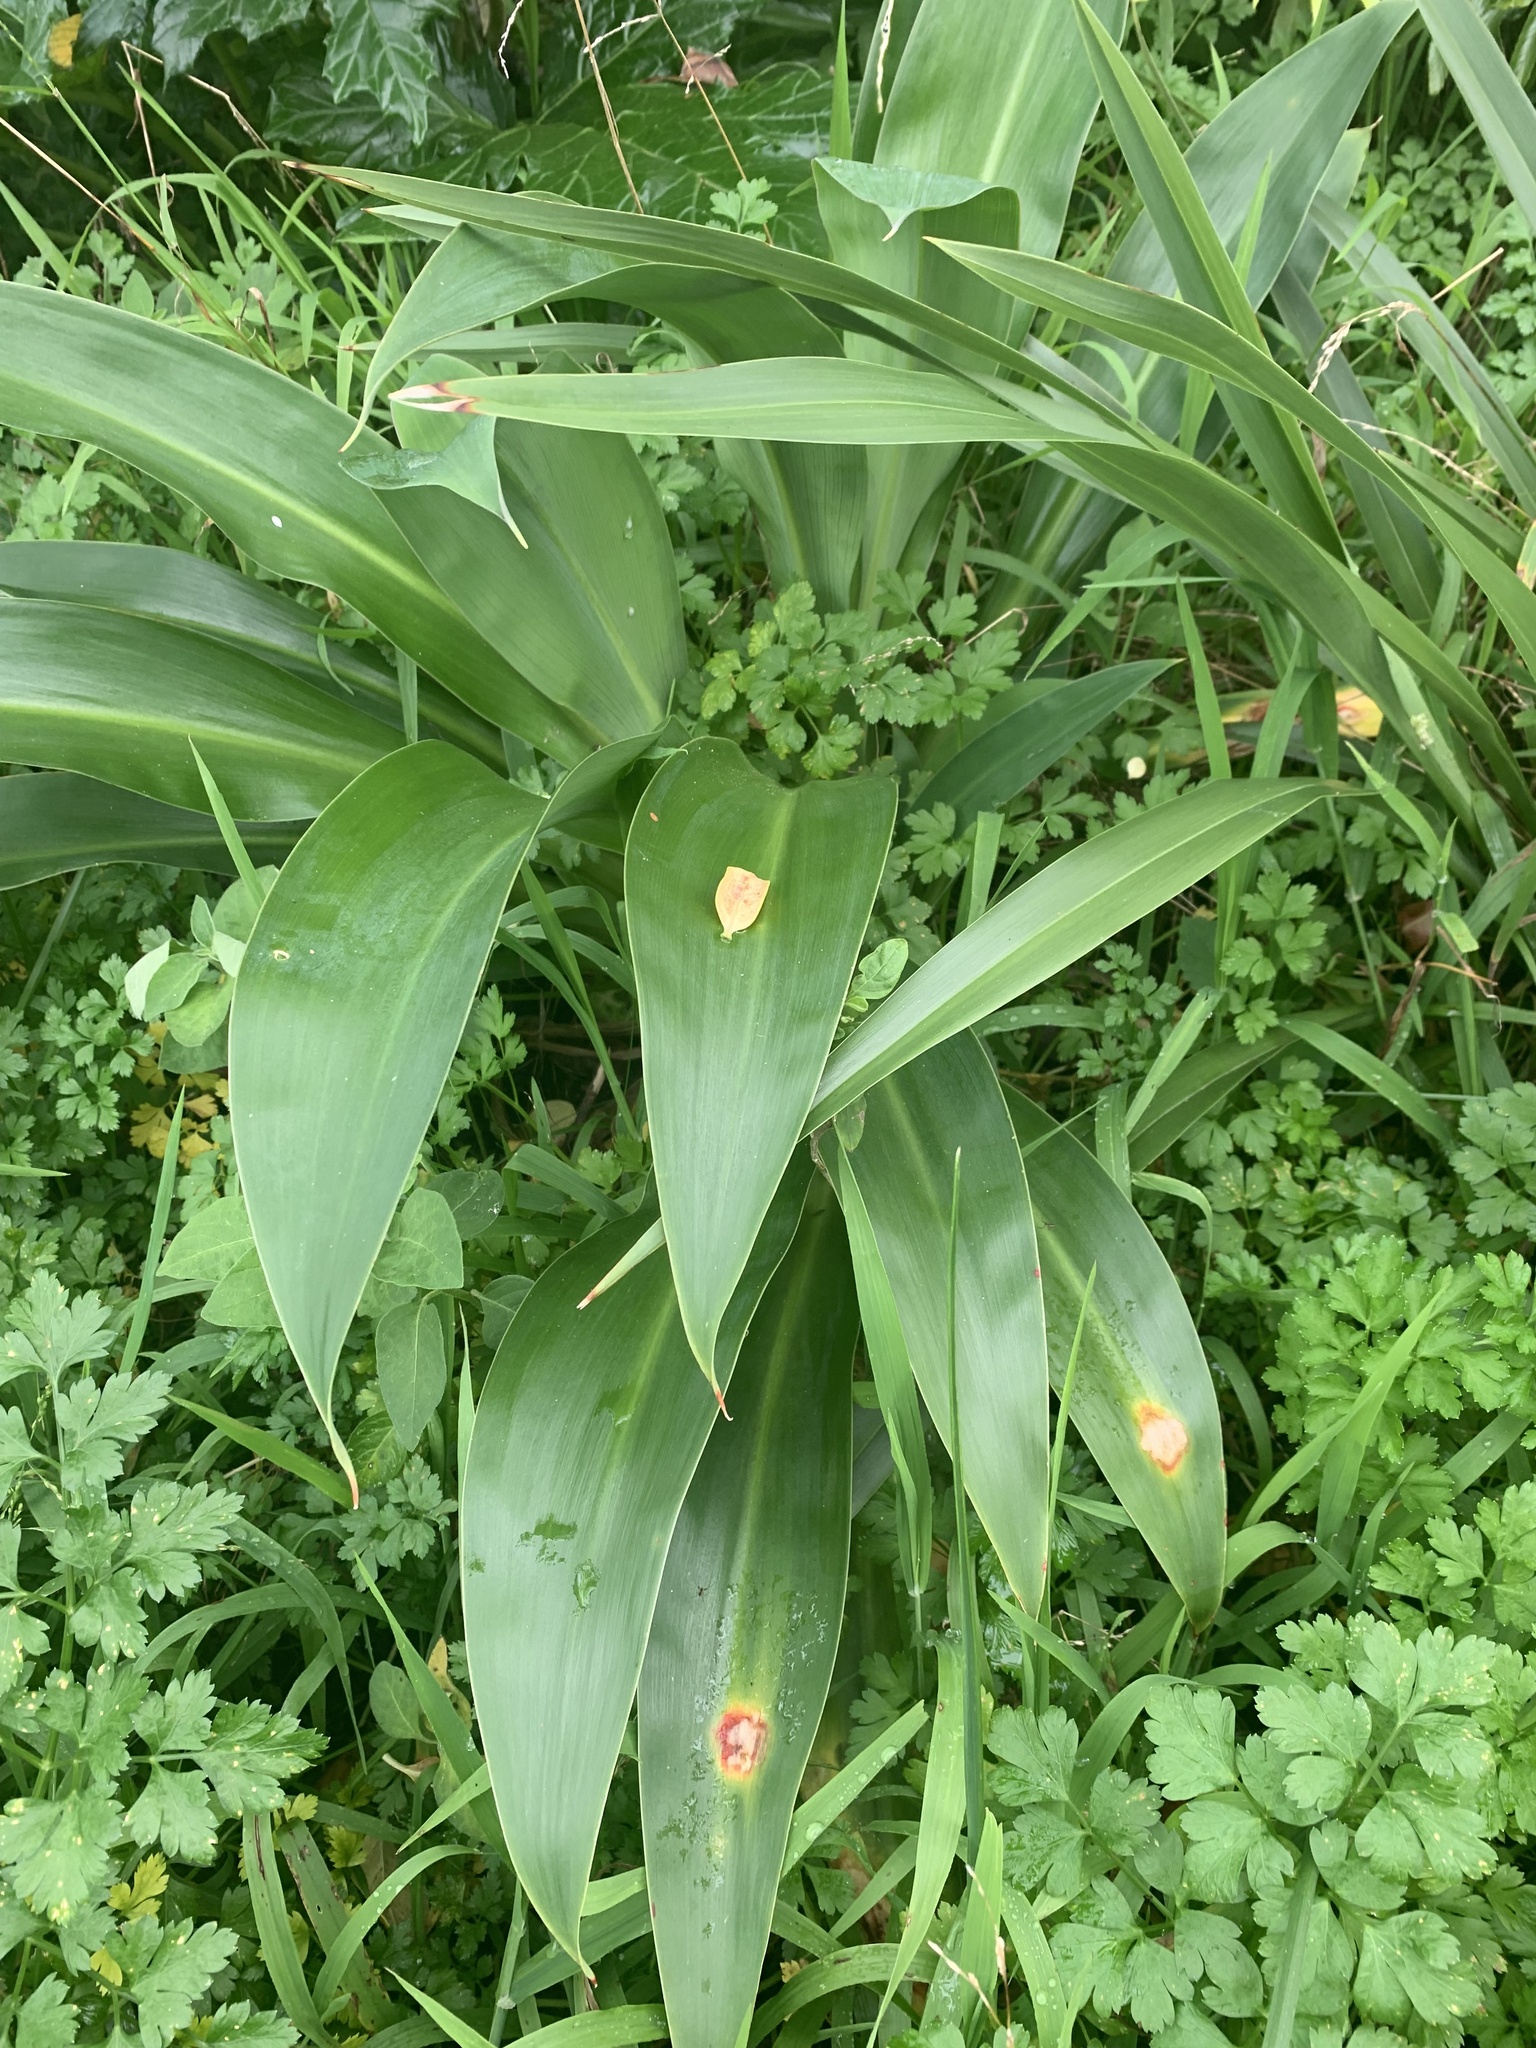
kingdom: Plantae
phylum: Tracheophyta
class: Liliopsida
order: Asparagales
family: Asparagaceae
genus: Arthropodium
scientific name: Arthropodium cirratum
